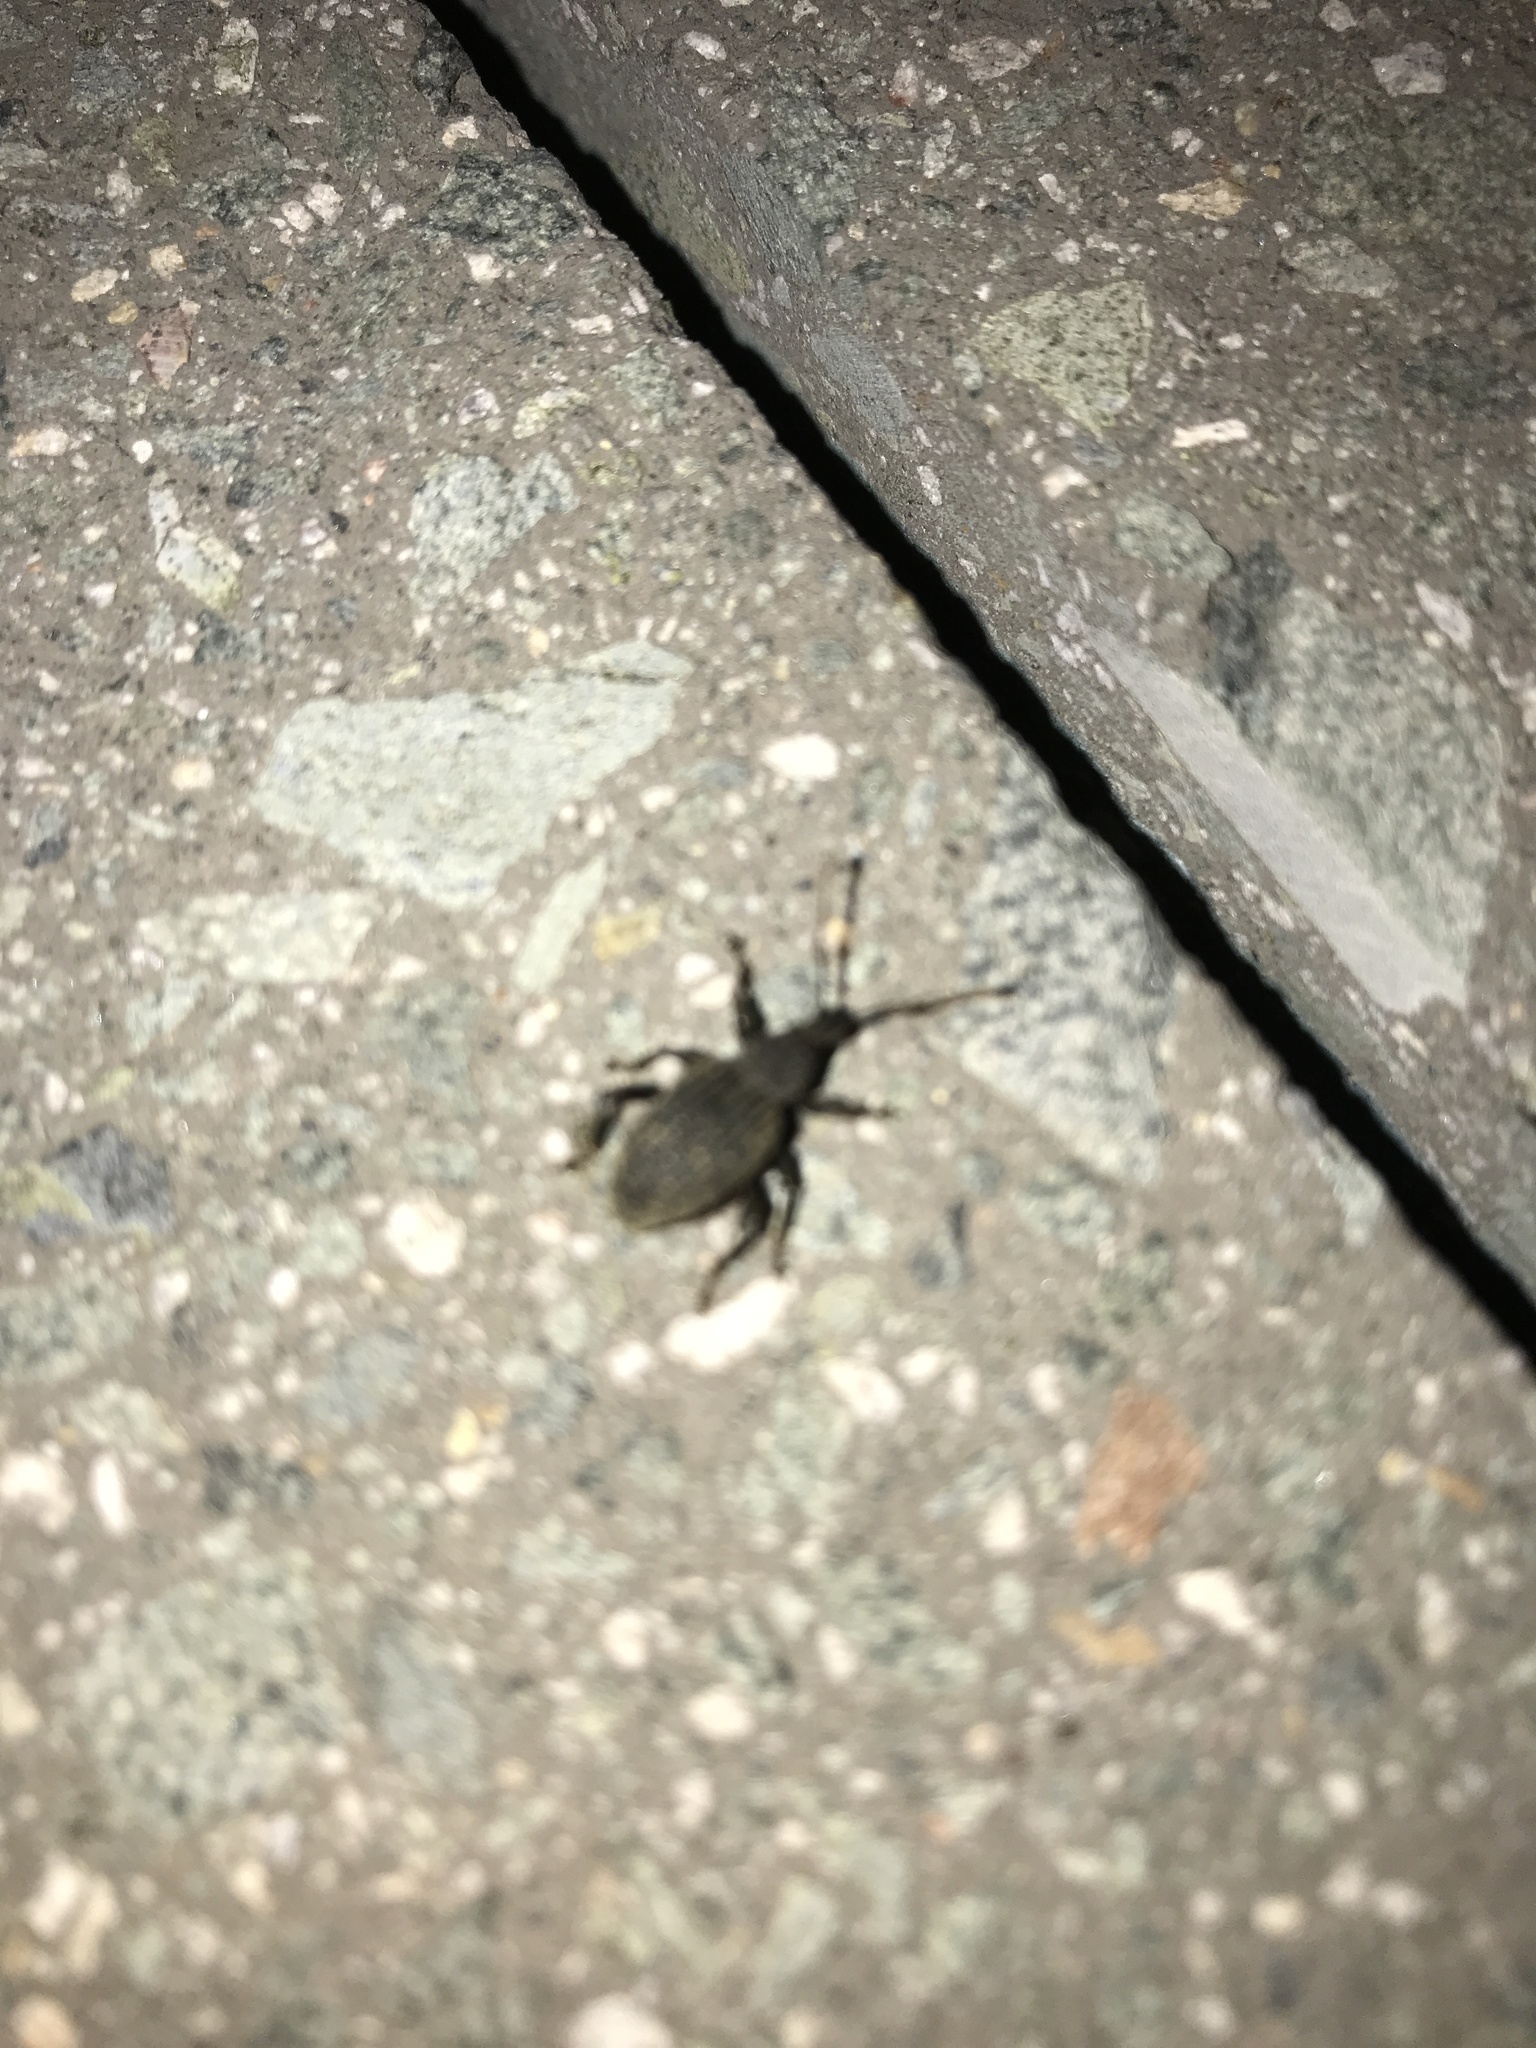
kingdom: Animalia
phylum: Arthropoda
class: Insecta
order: Coleoptera
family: Curculionidae
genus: Otiorhynchus
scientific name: Otiorhynchus sulcatus
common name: Black vine weevil
